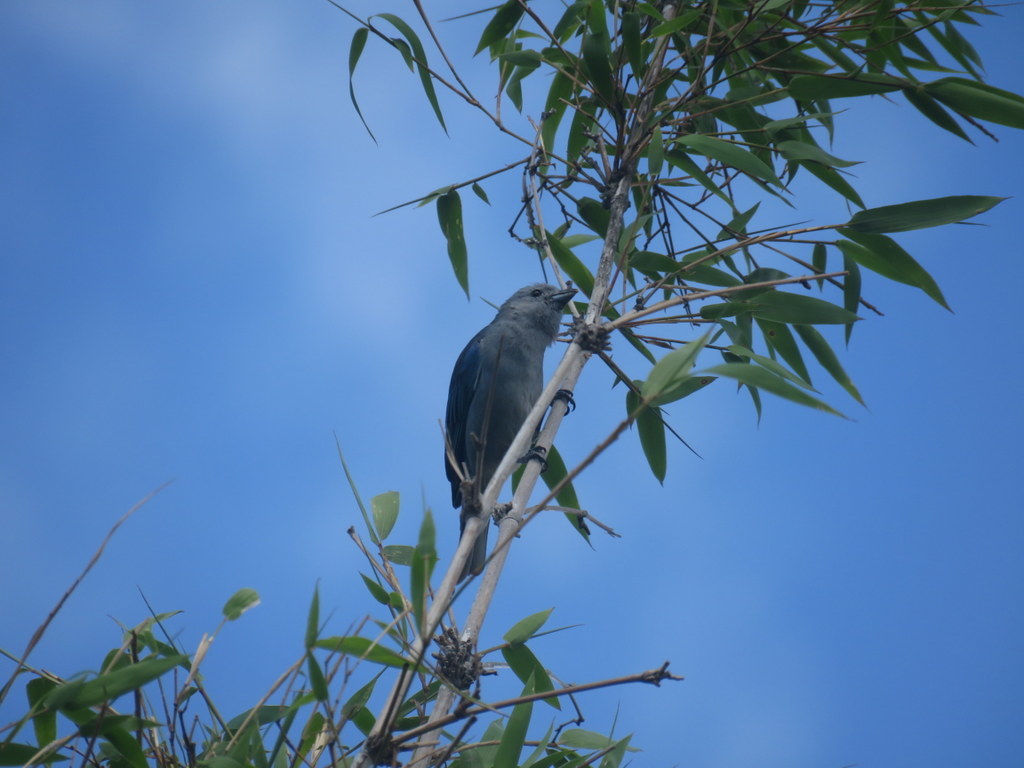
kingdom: Animalia
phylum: Chordata
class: Aves
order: Passeriformes
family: Thraupidae
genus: Thraupis
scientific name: Thraupis sayaca
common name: Sayaca tanager
